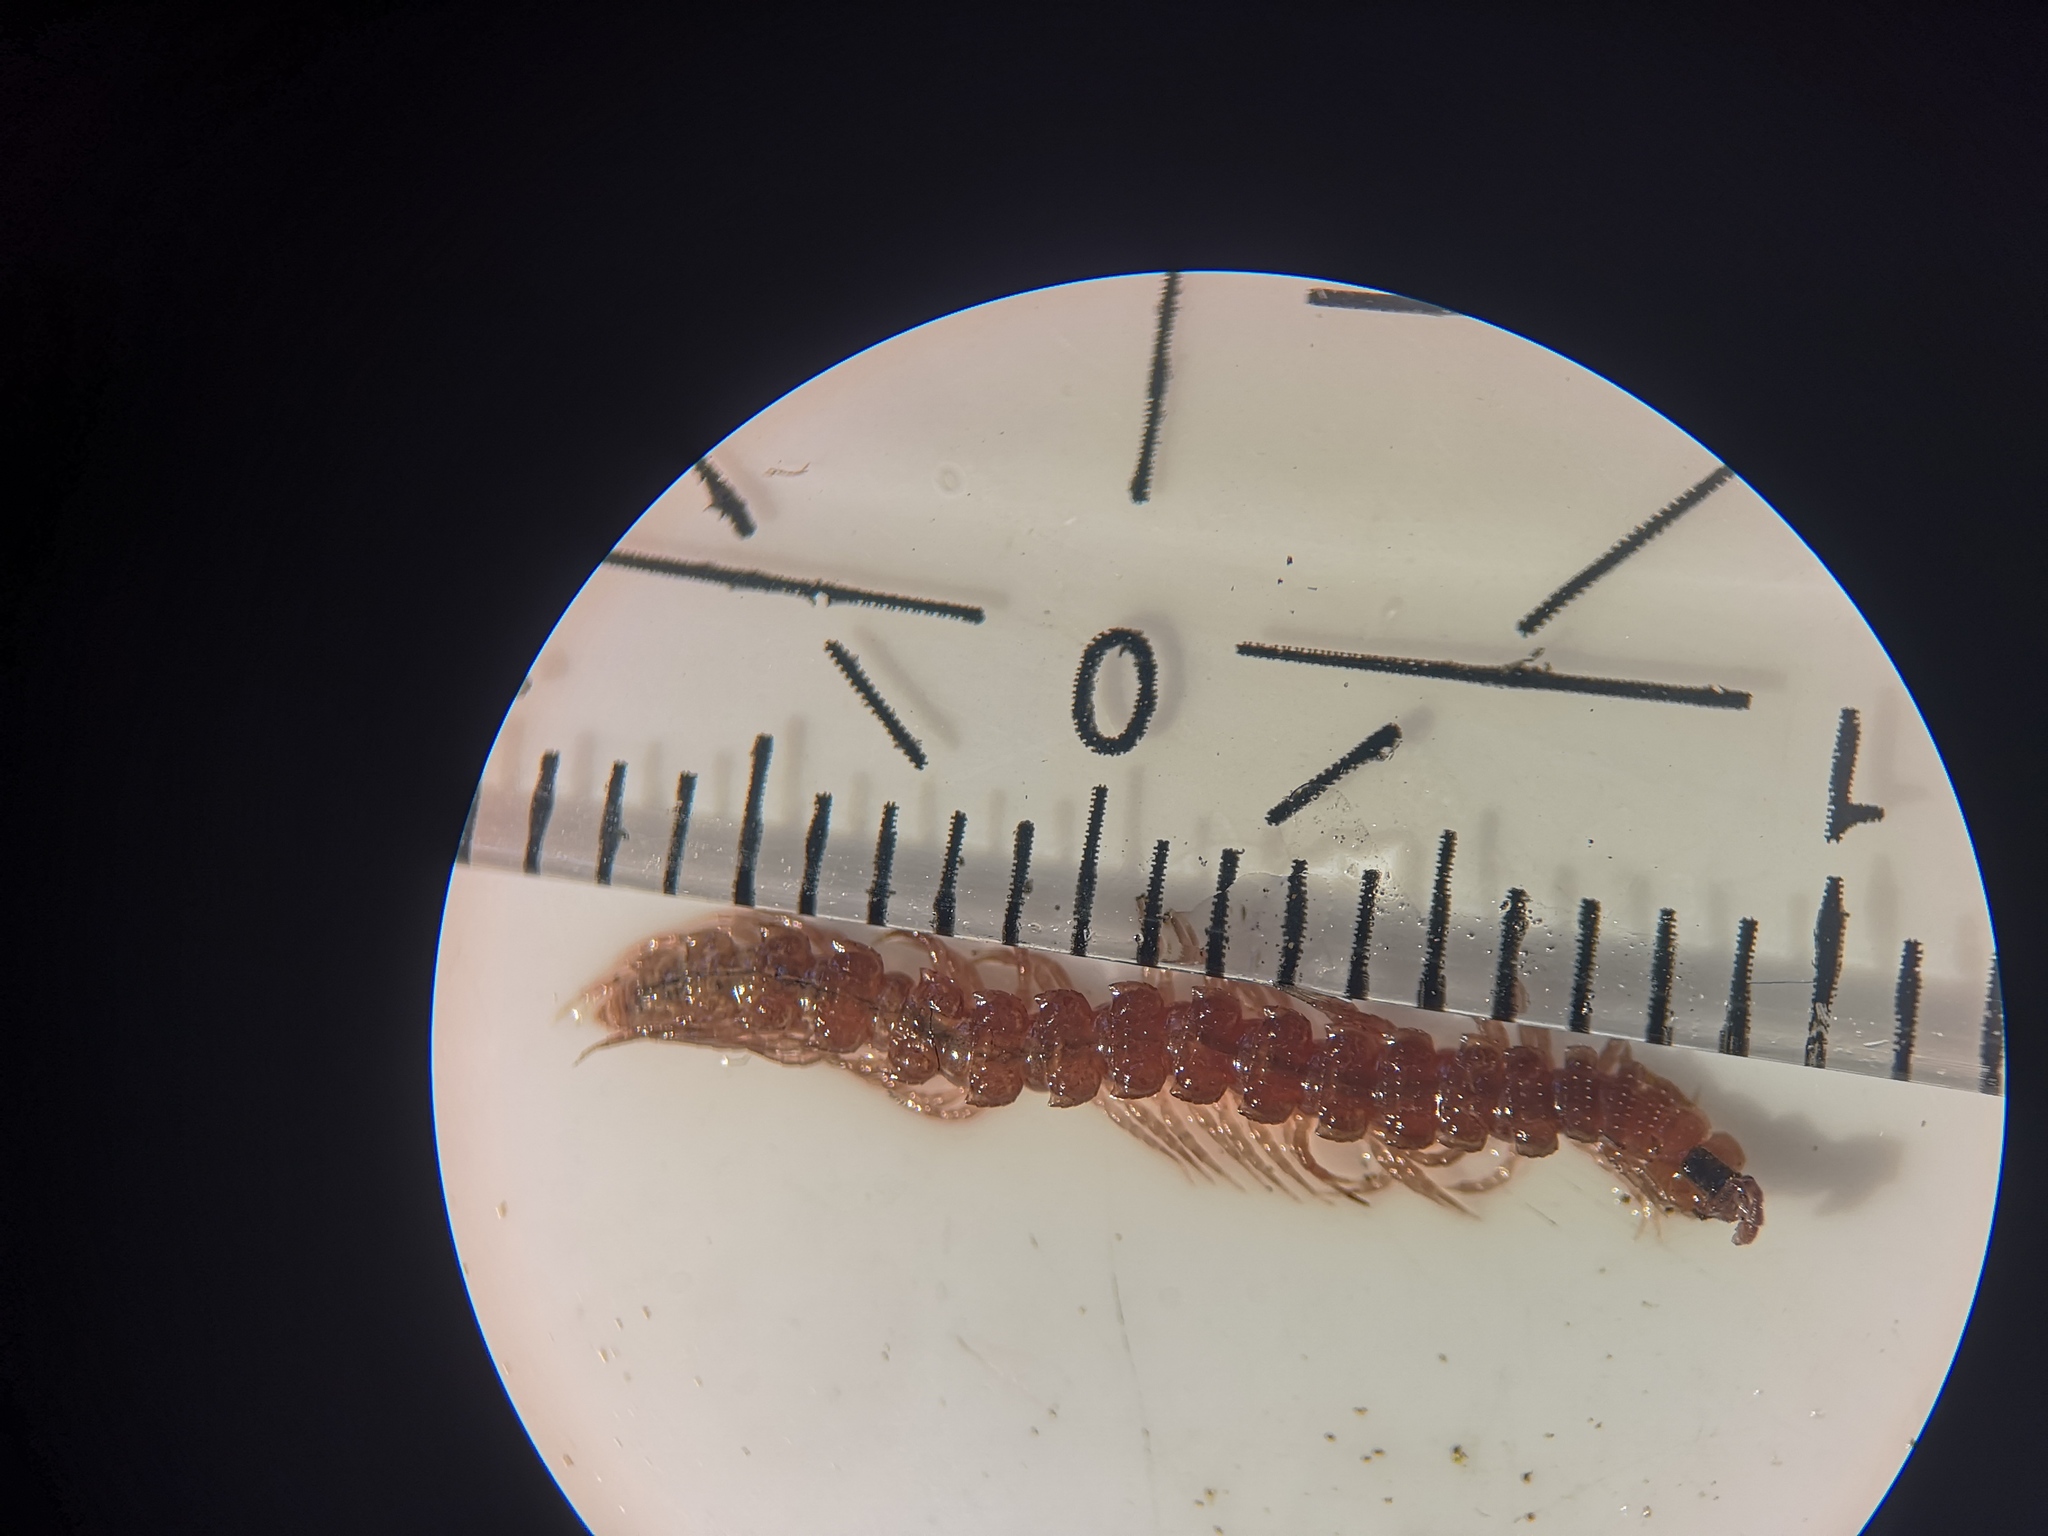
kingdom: Animalia
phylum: Arthropoda
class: Diplopoda
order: Polydesmida
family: Polydesmidae
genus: Polydesmus
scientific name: Polydesmus denticulatus
